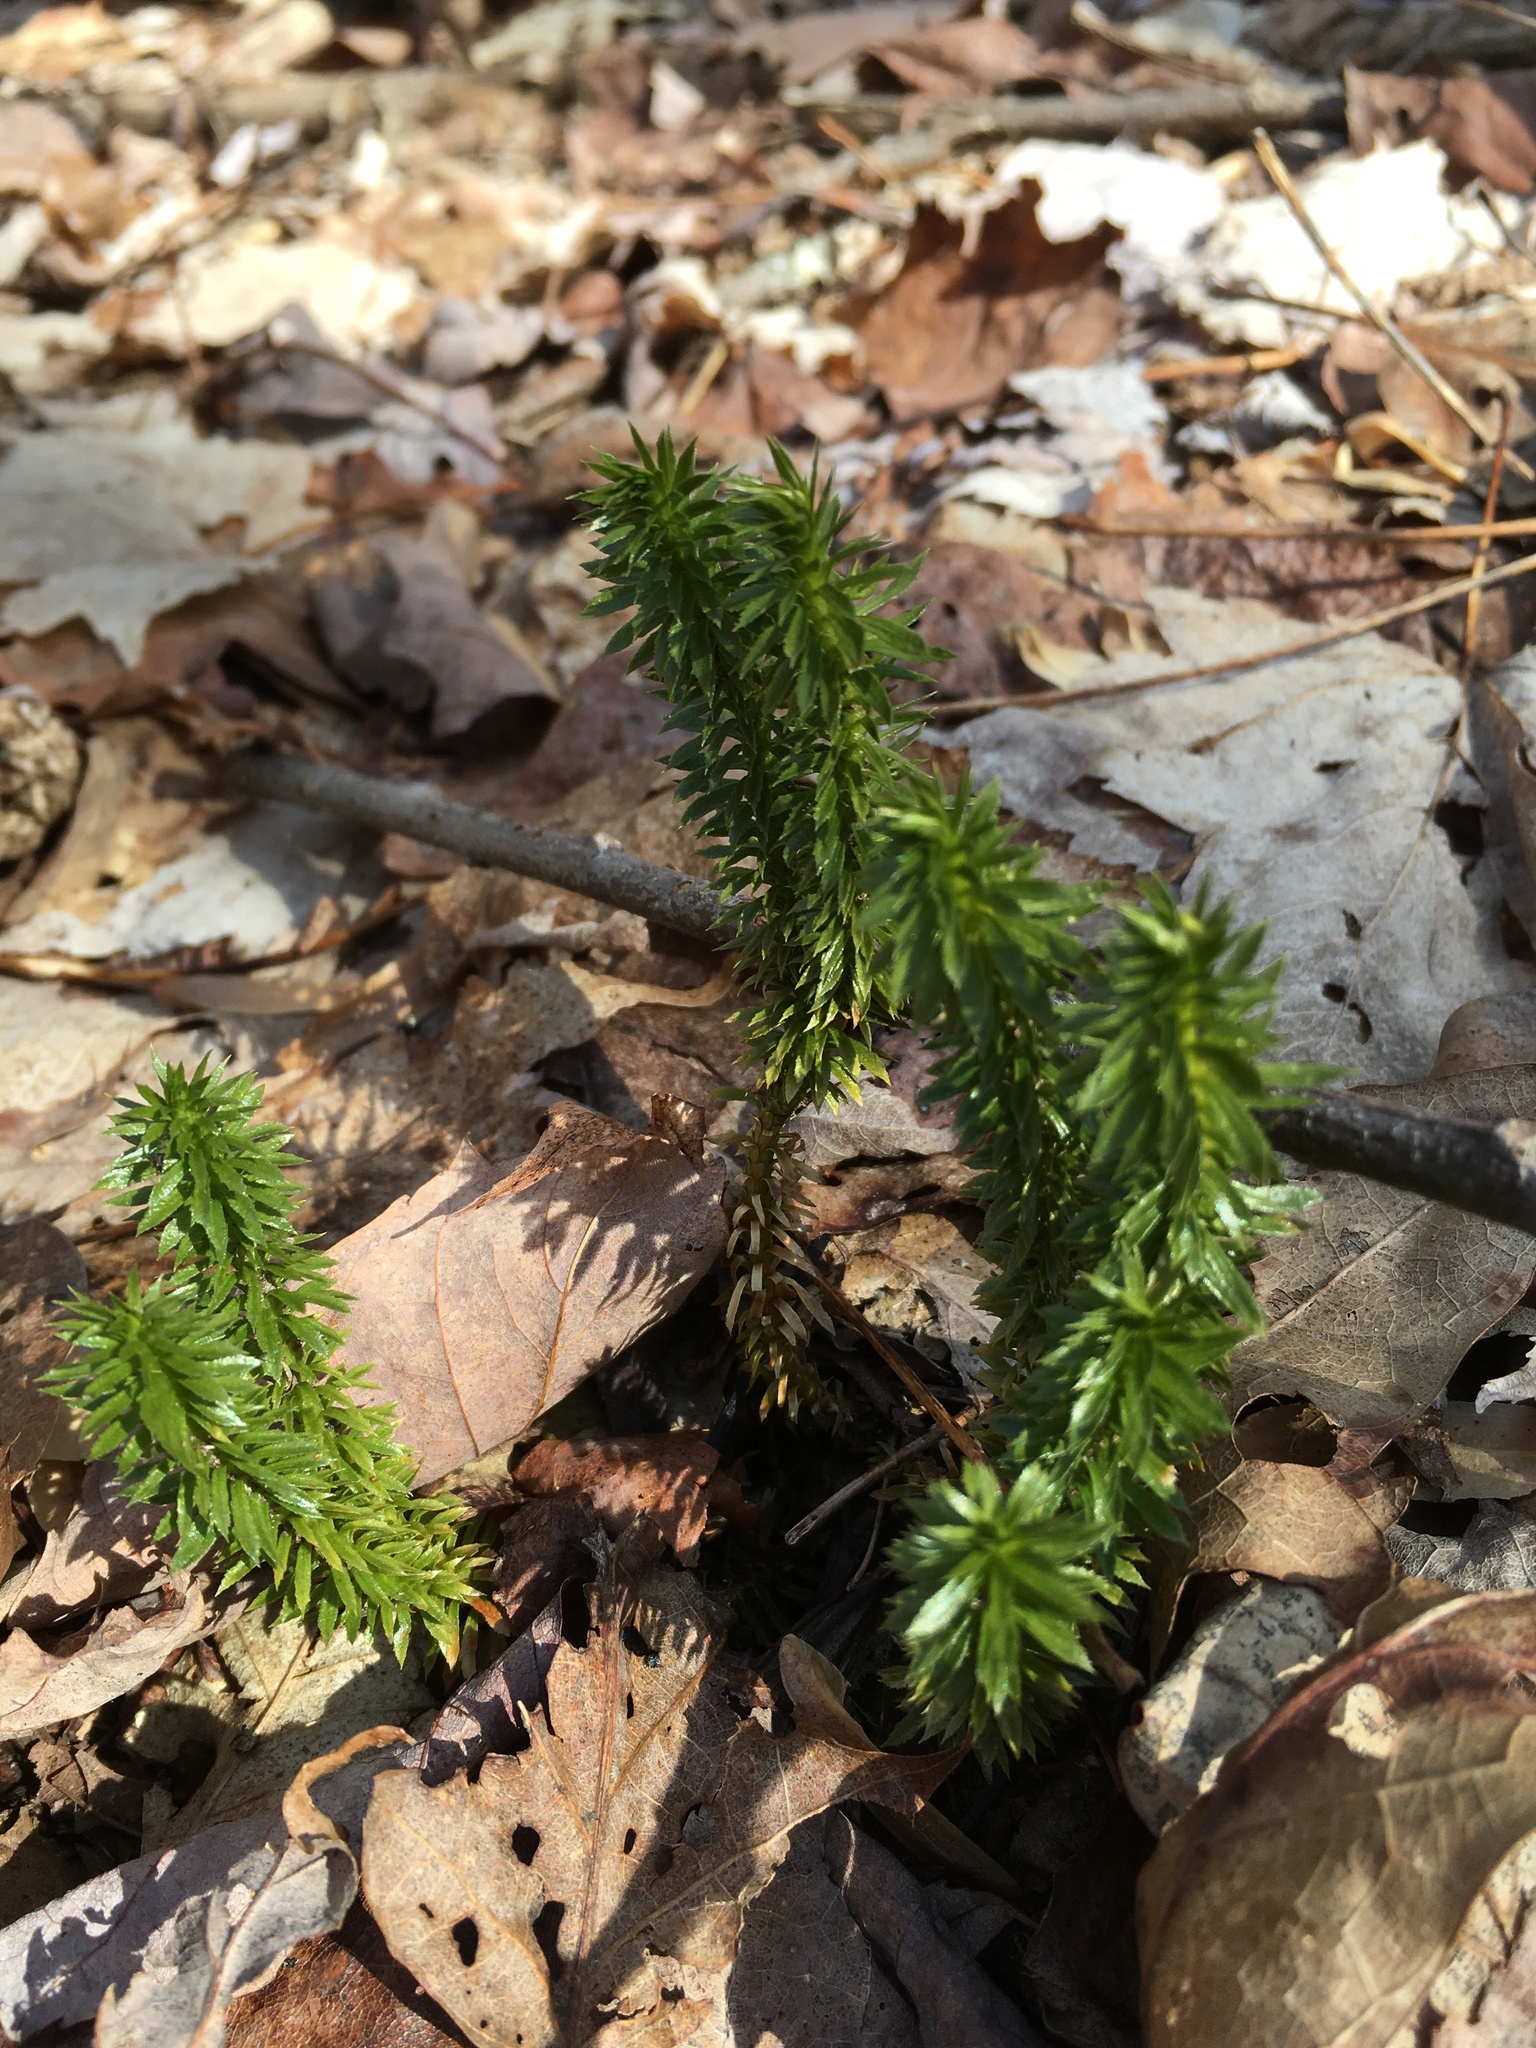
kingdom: Plantae
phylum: Tracheophyta
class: Lycopodiopsida
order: Lycopodiales
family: Lycopodiaceae
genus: Huperzia
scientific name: Huperzia lucidula
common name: Shining clubmoss
